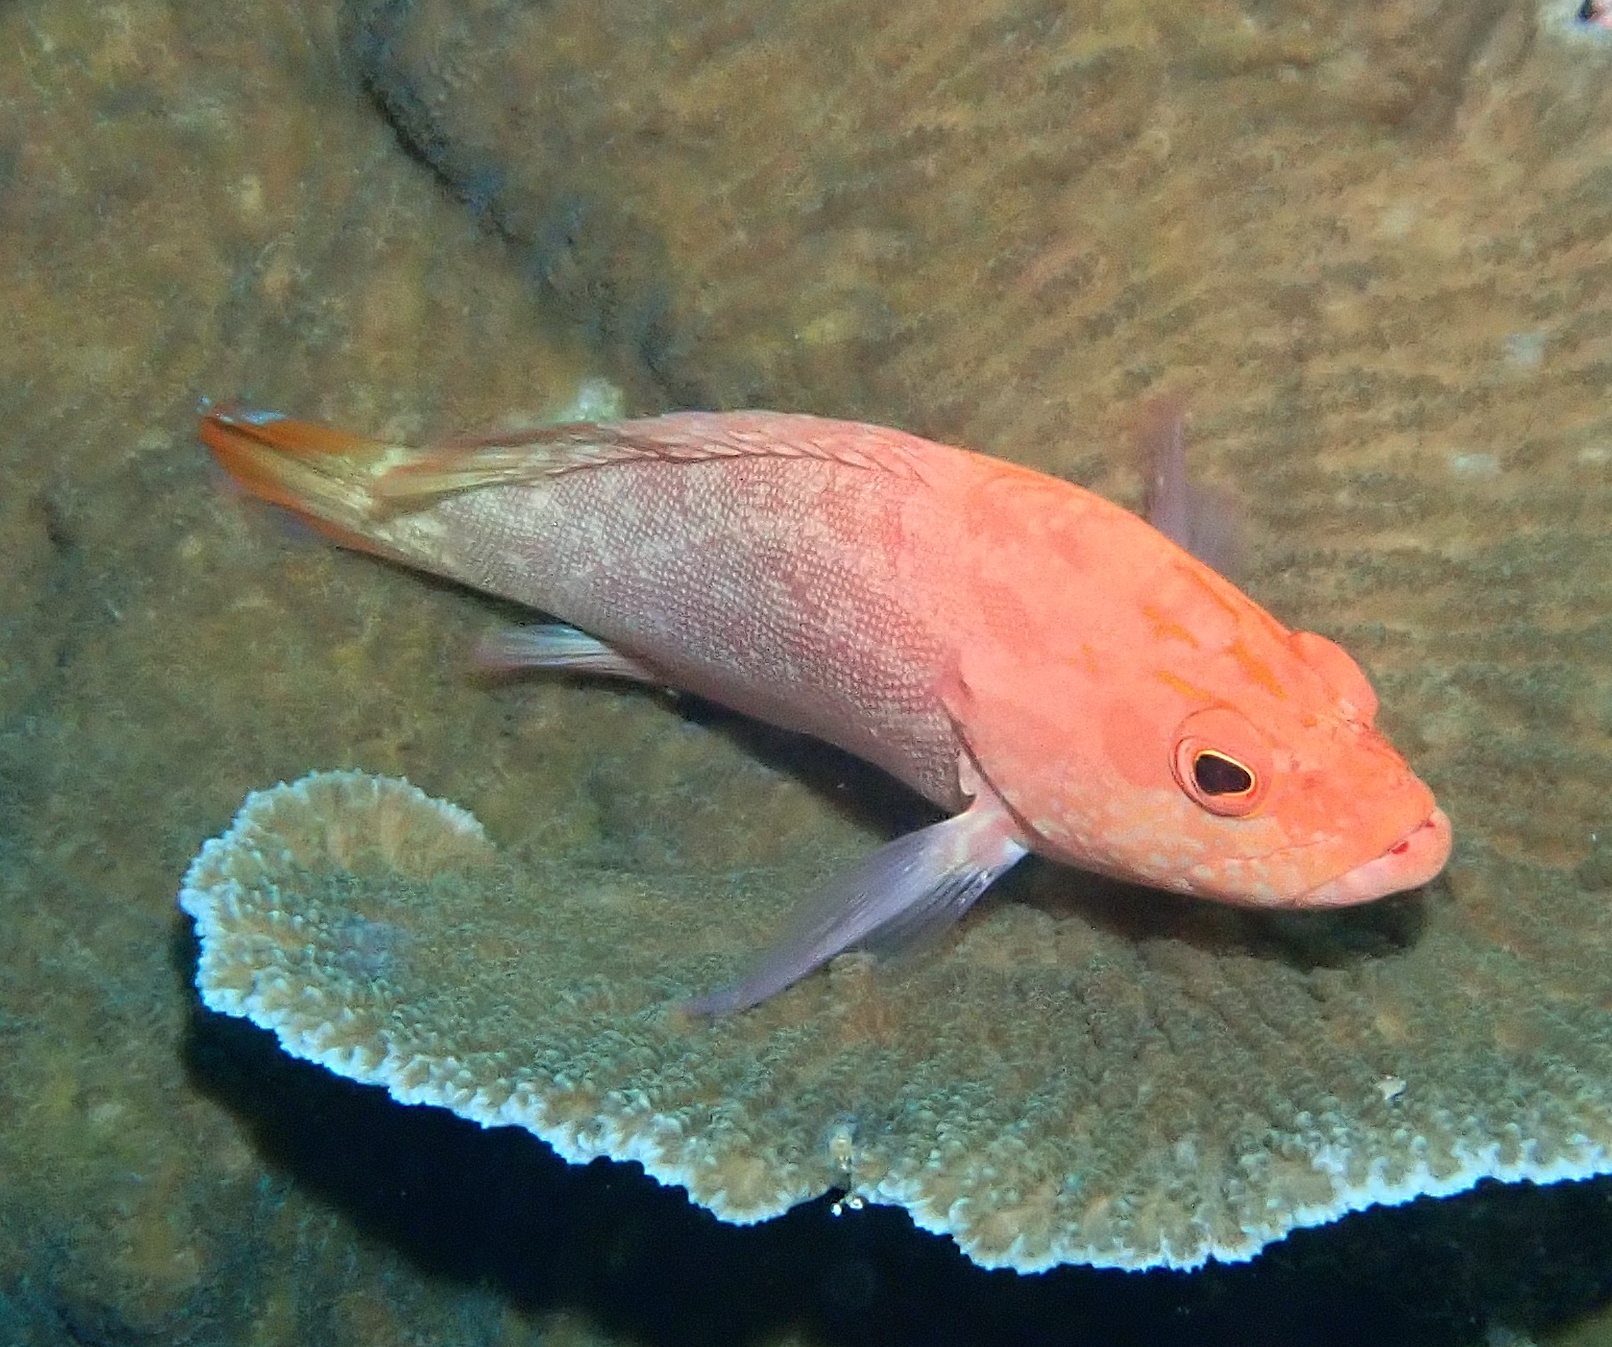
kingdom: Animalia
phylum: Chordata
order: Perciformes
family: Serranidae
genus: Cephalopholis
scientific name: Cephalopholis spiloparaea
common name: Strawberry grouper
